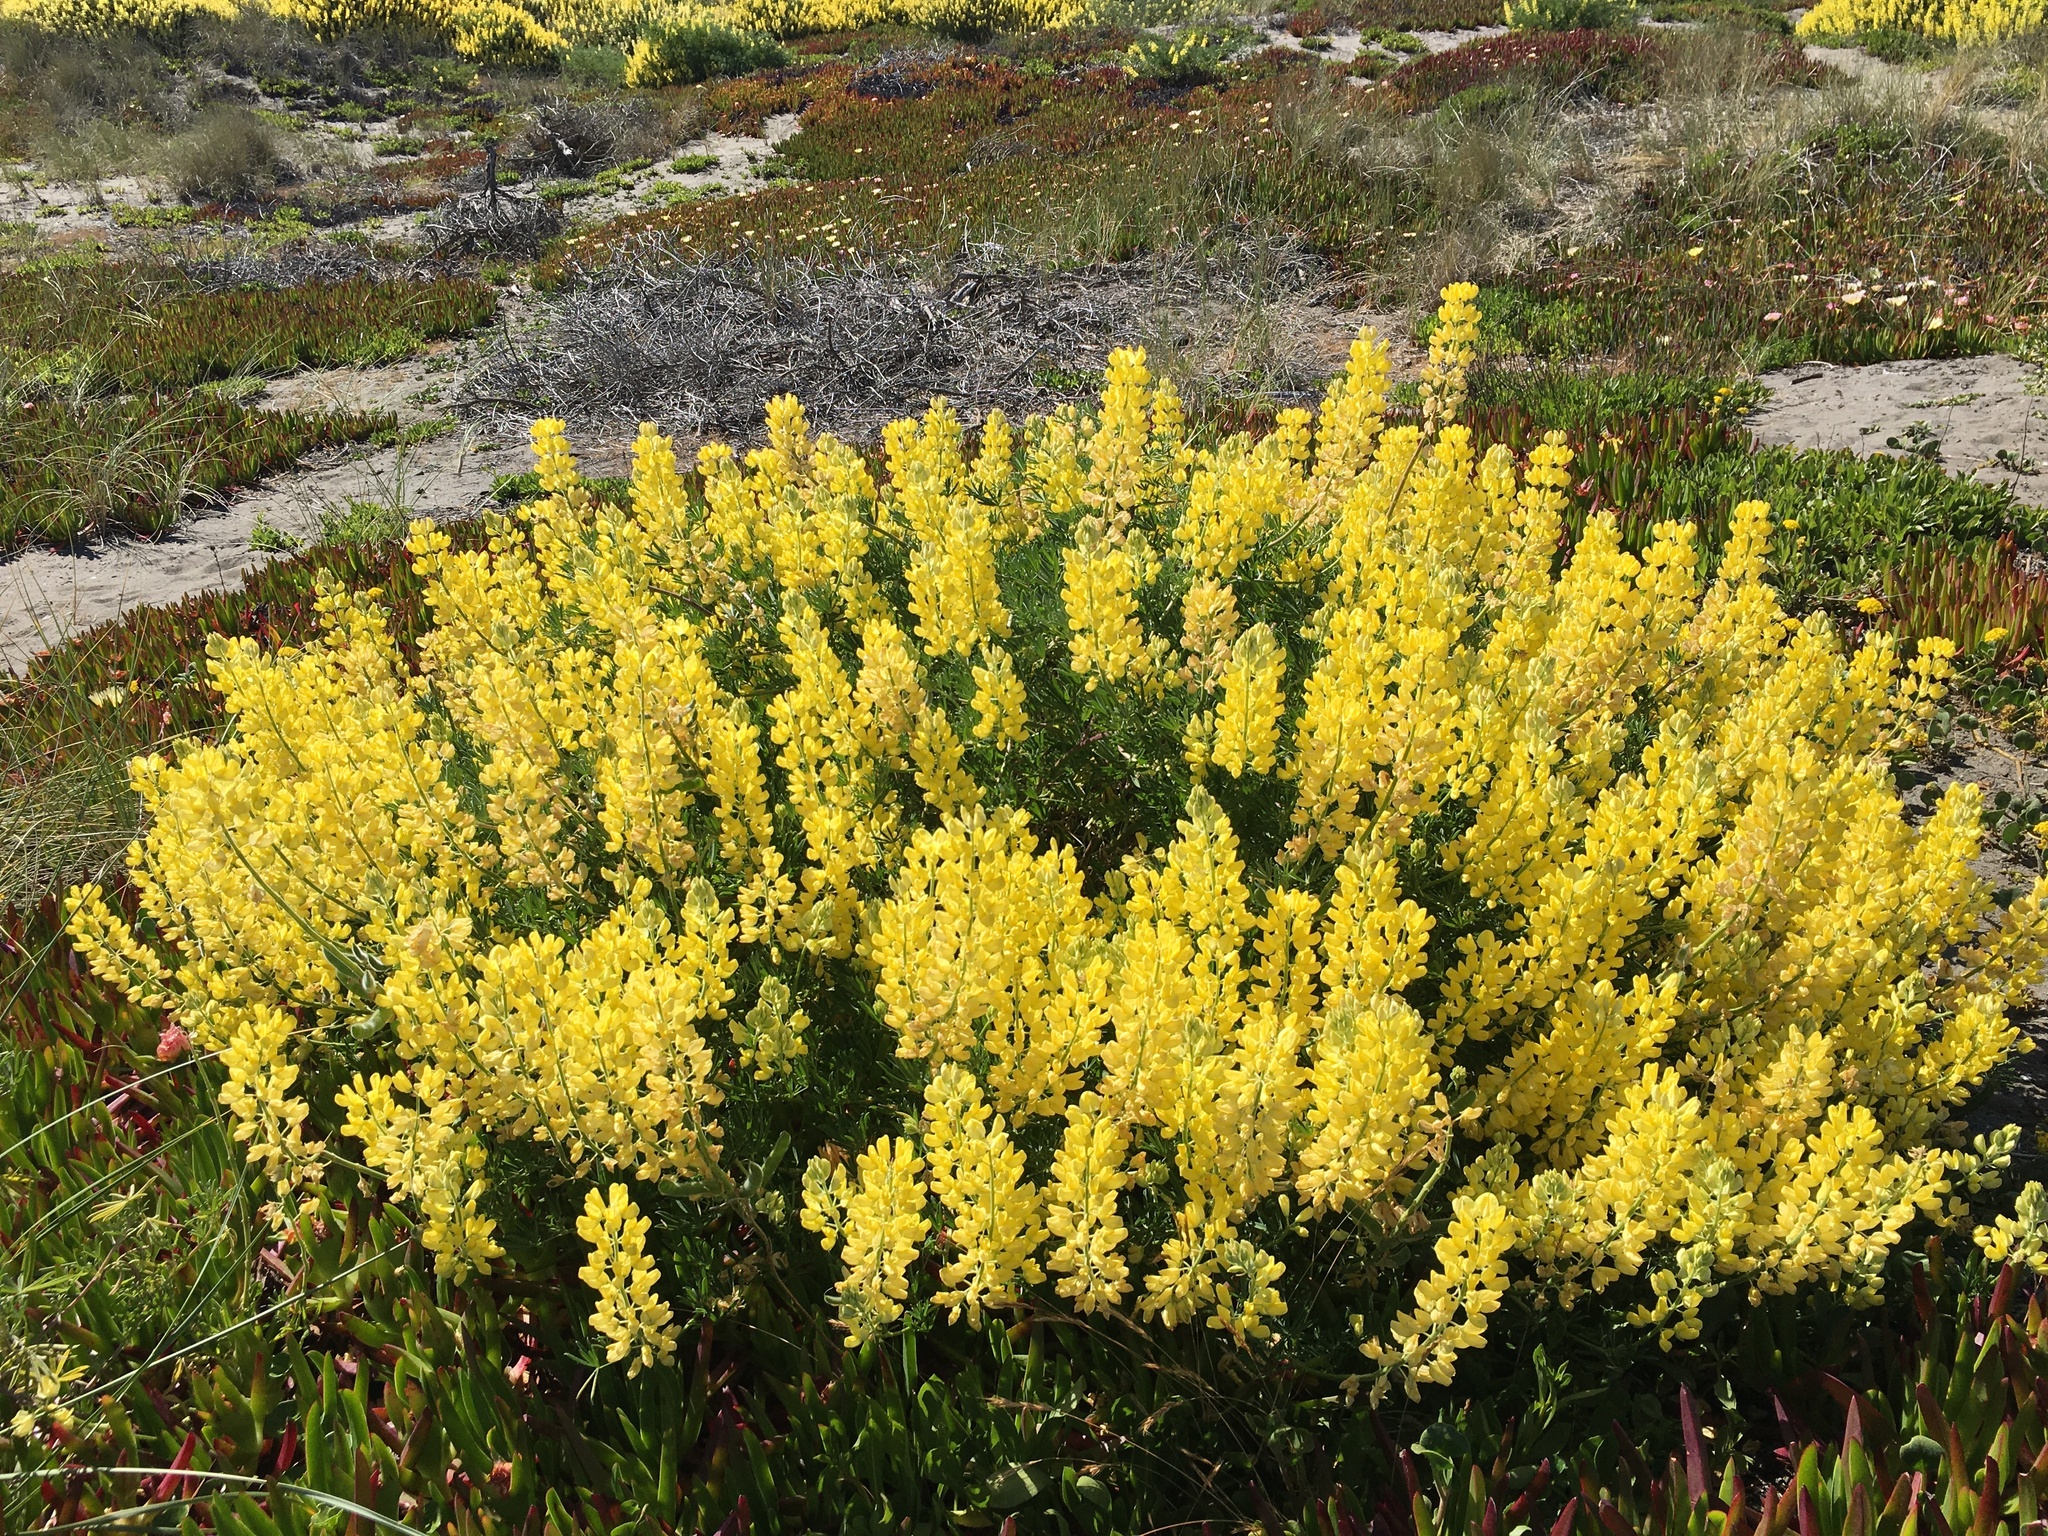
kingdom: Plantae
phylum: Tracheophyta
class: Magnoliopsida
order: Fabales
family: Fabaceae
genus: Lupinus
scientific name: Lupinus arboreus
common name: Yellow bush lupine
